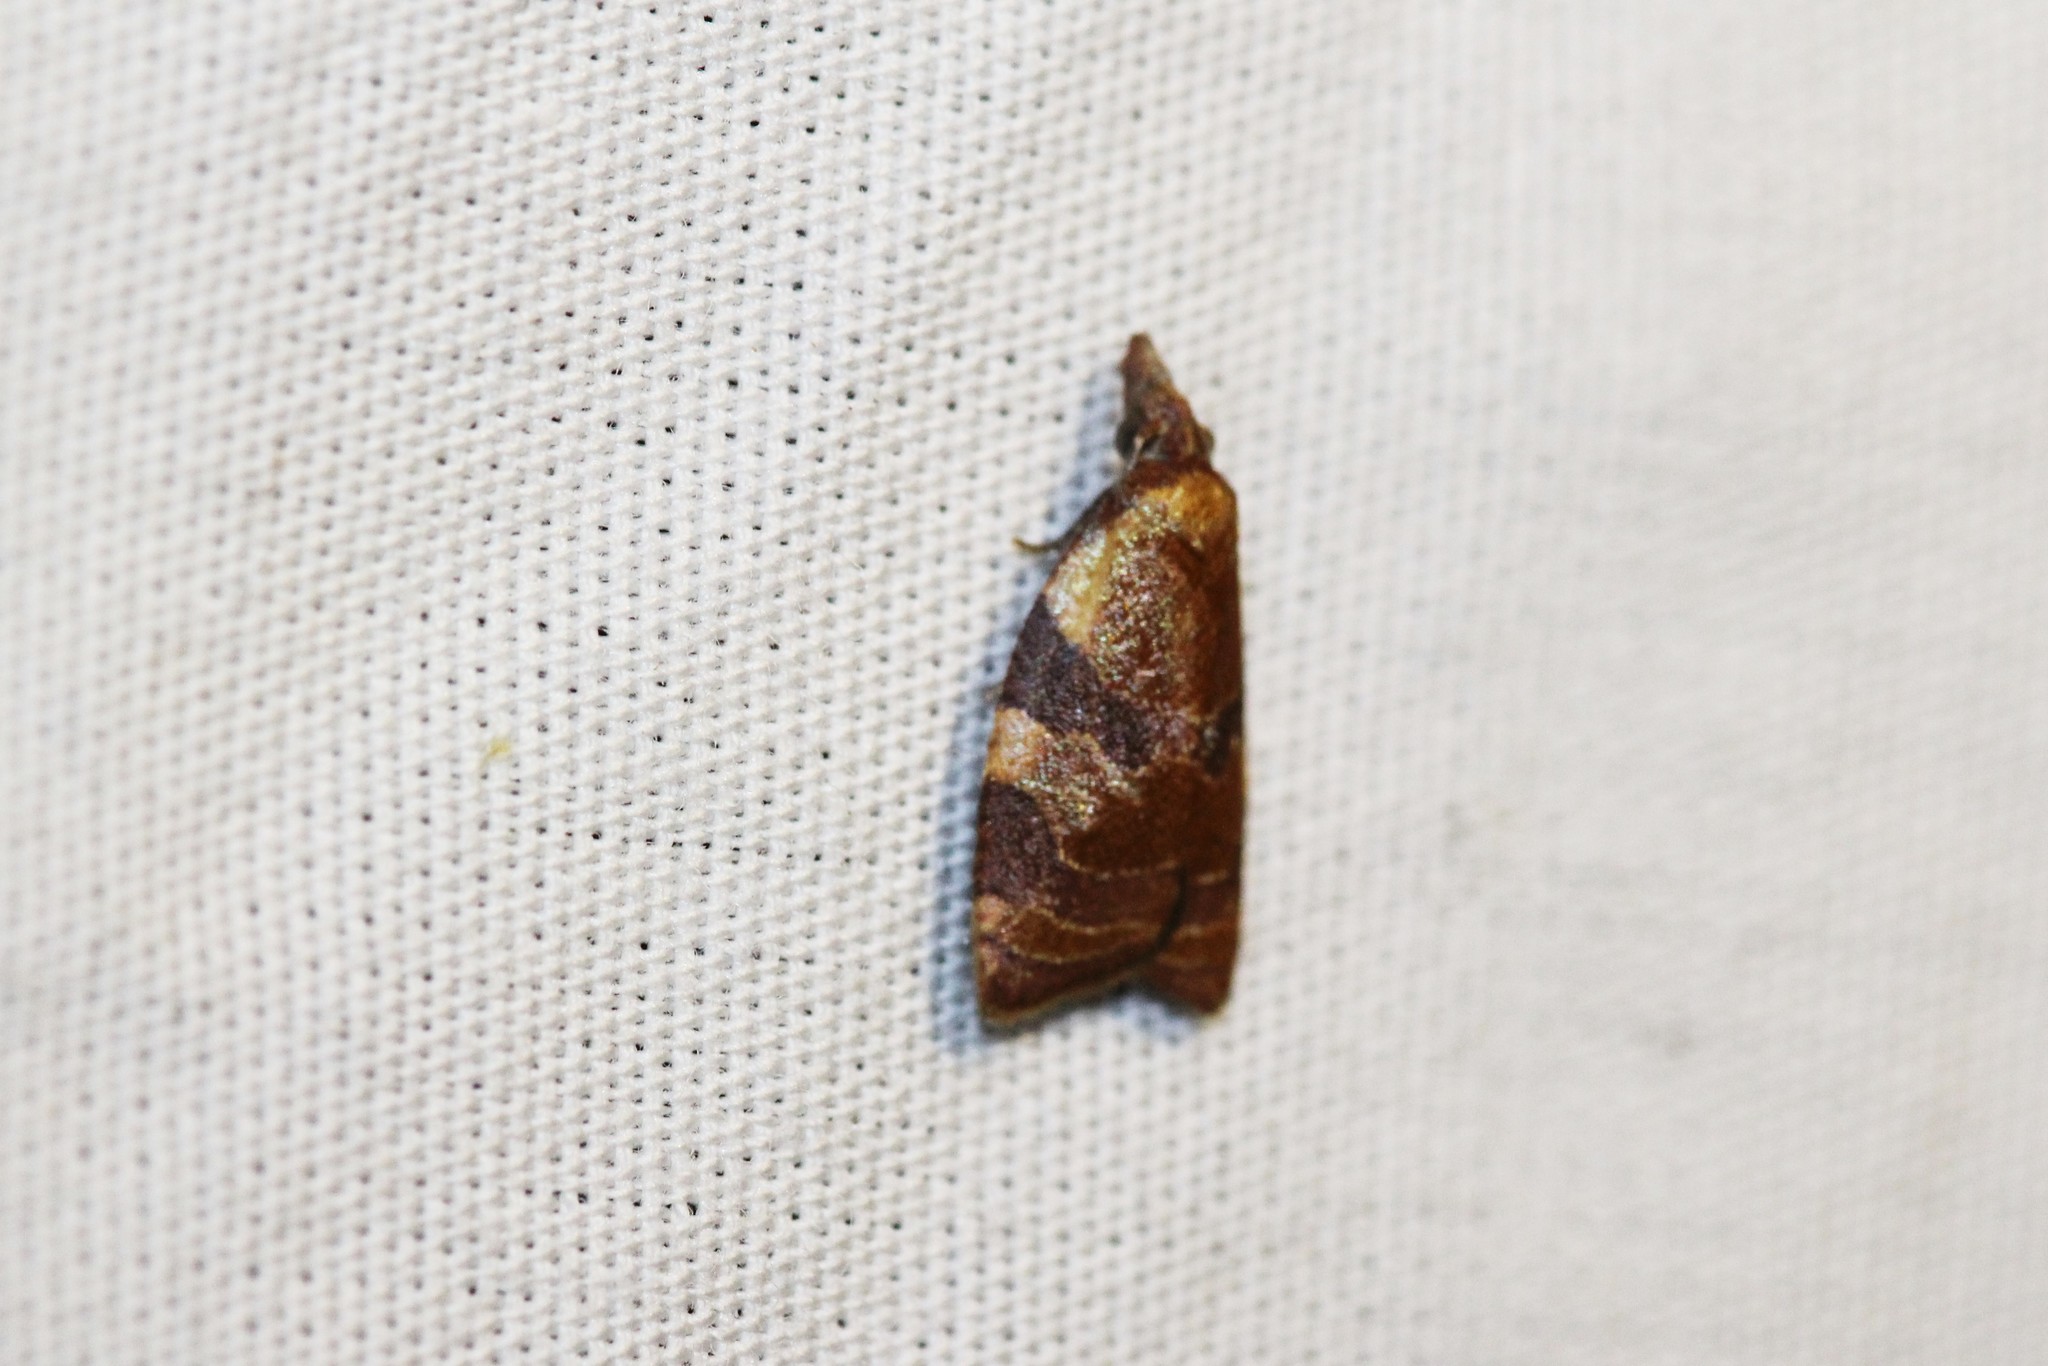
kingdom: Animalia
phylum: Arthropoda
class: Insecta
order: Lepidoptera
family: Tortricidae
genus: Cenopis
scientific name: Cenopis diluticostana
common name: Spring dead-leaf roller moth
